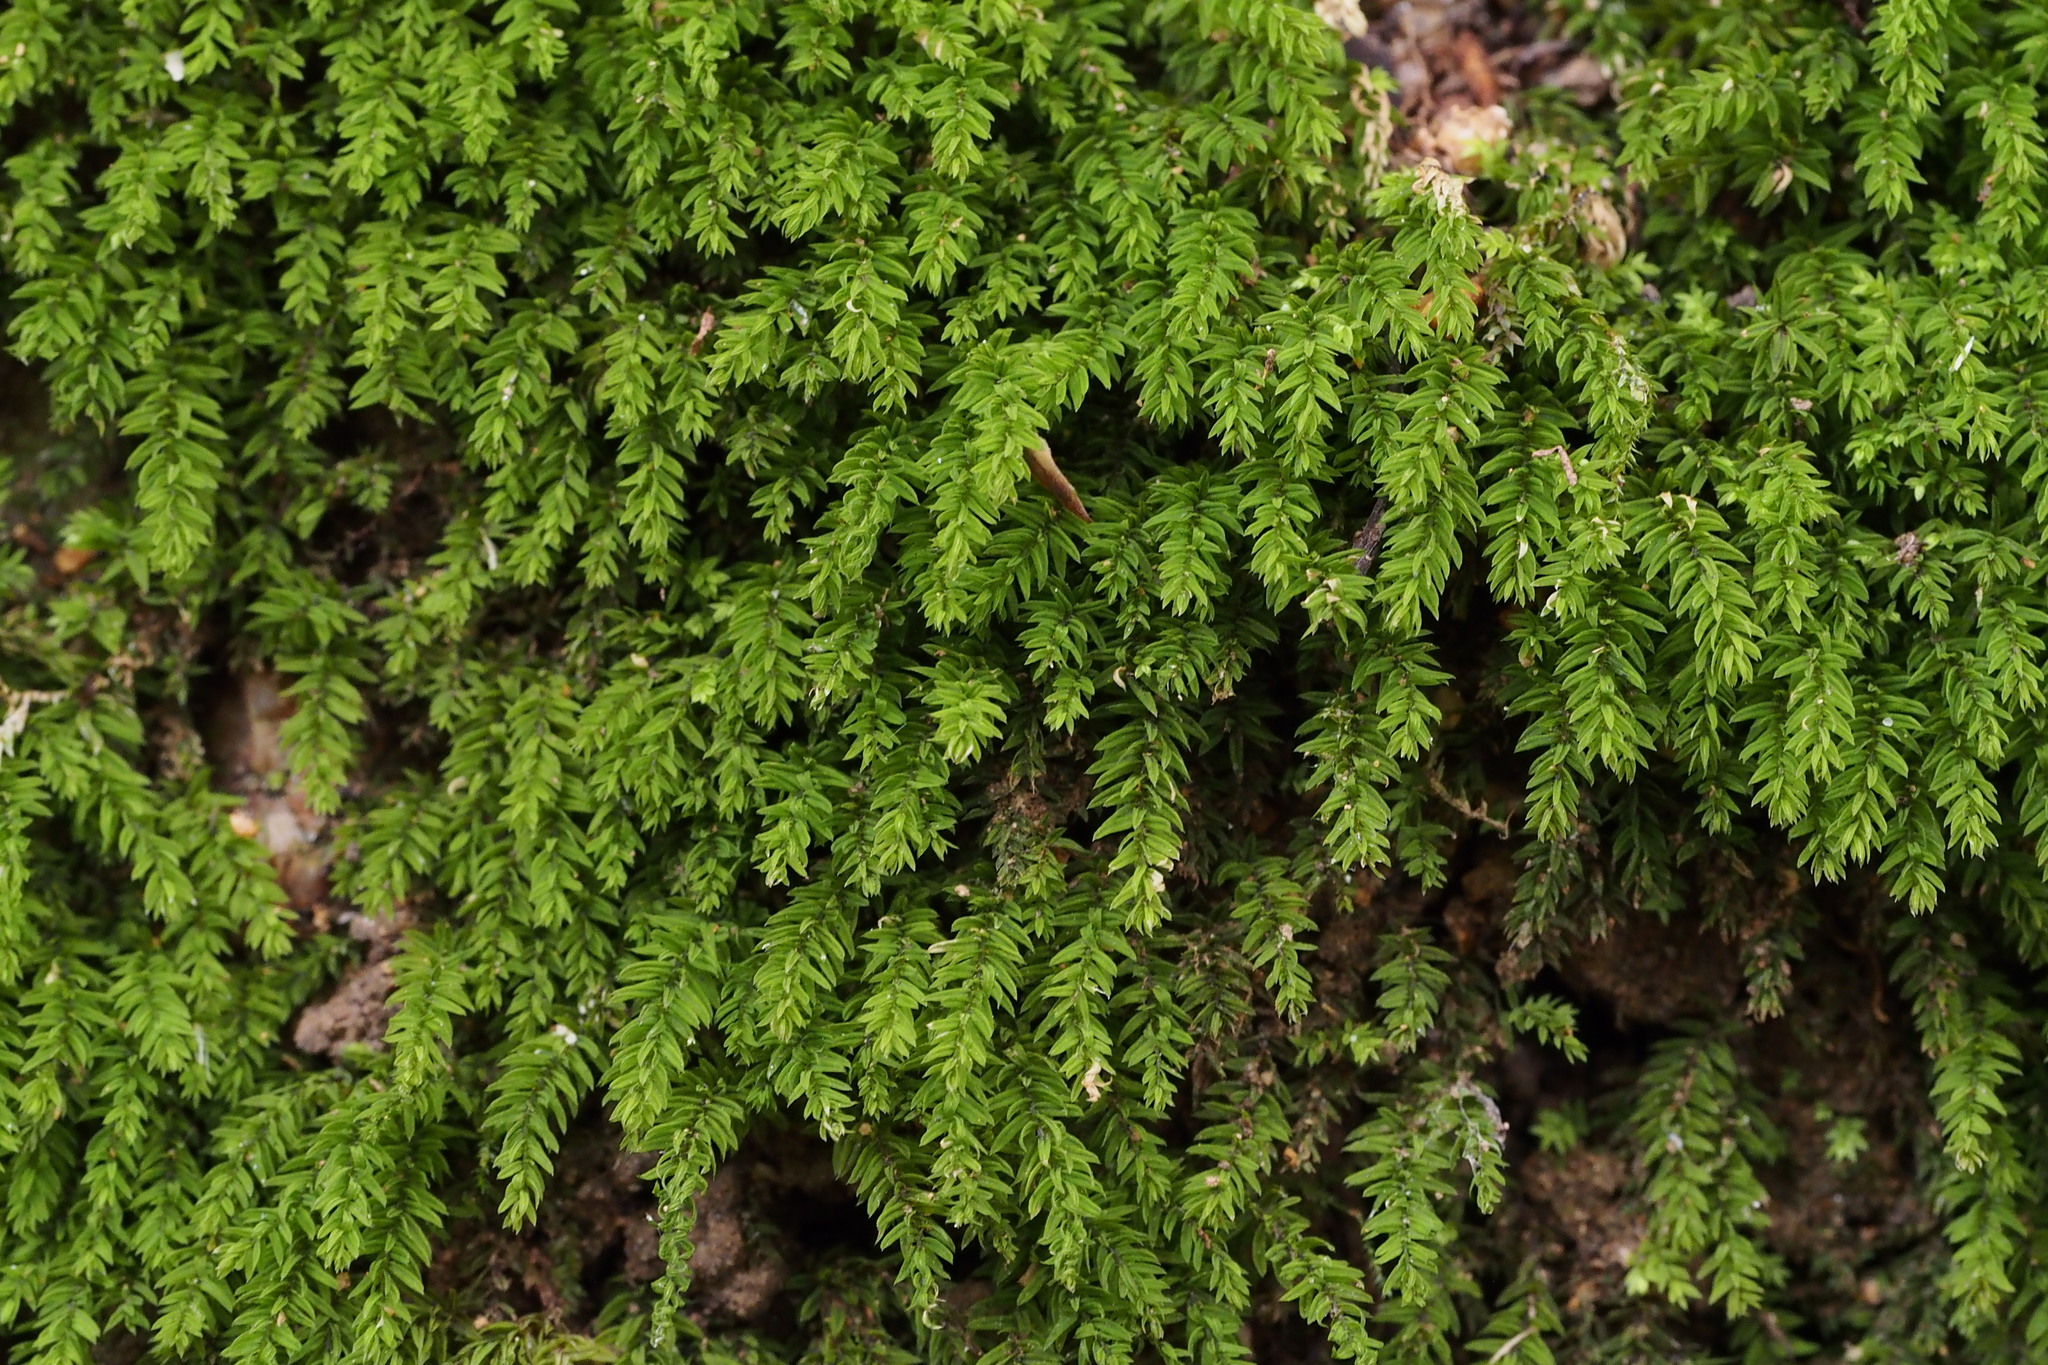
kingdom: Plantae
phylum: Bryophyta
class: Bryopsida
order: Bryales
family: Mniaceae
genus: Trachycystis
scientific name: Trachycystis microphylla
